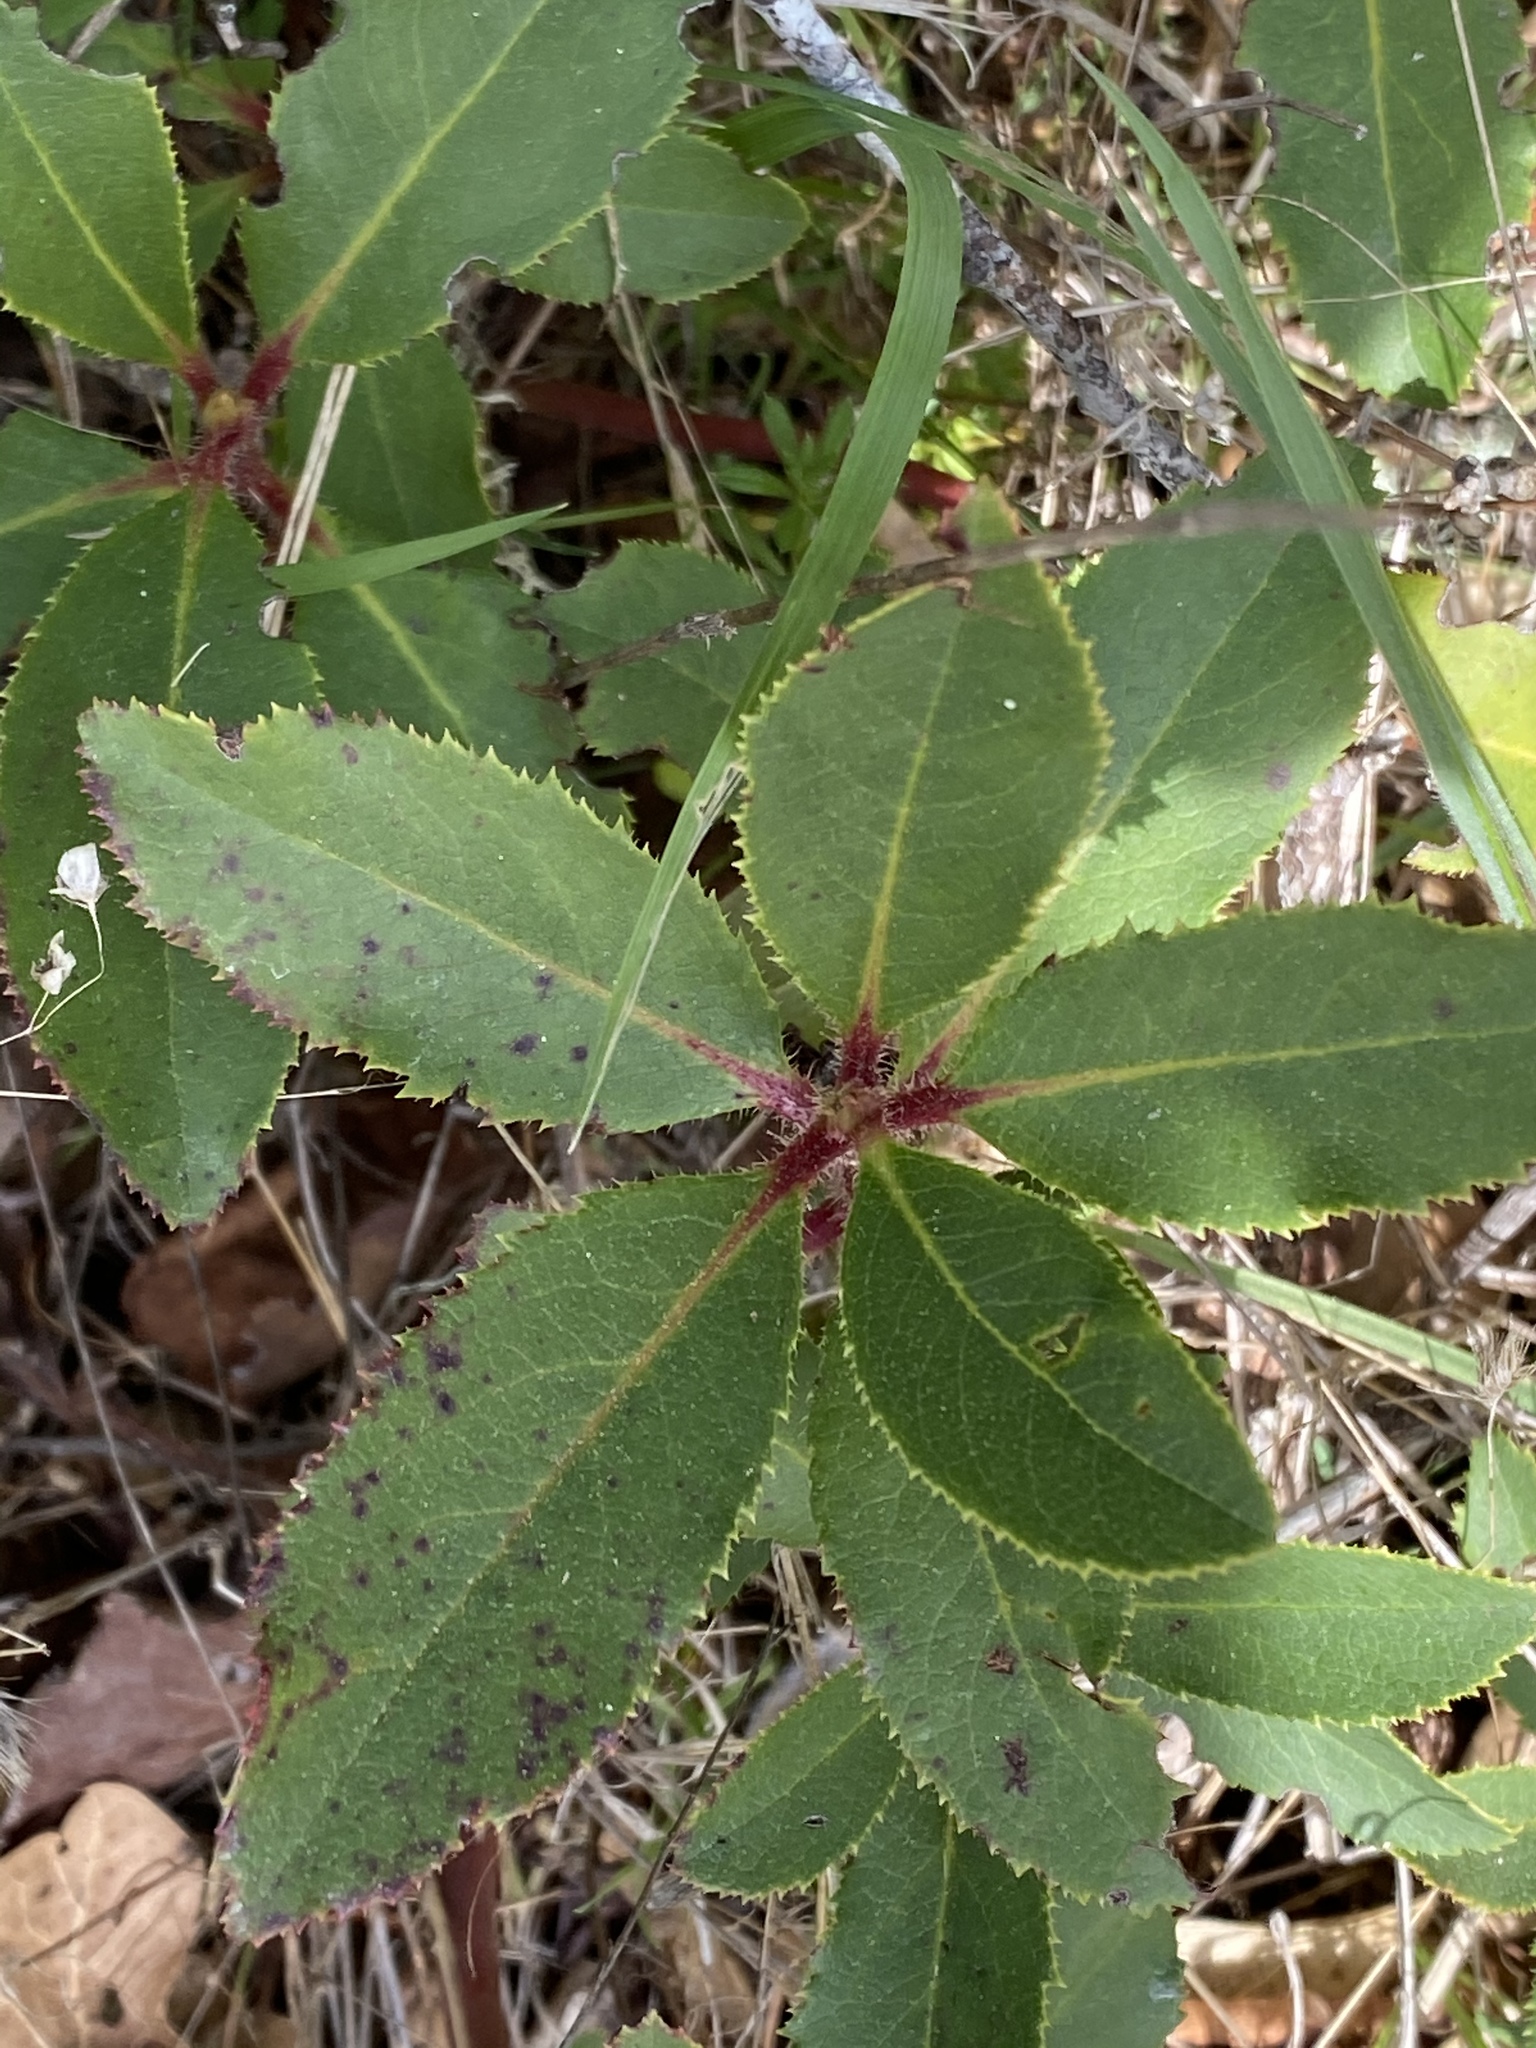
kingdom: Plantae
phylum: Tracheophyta
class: Magnoliopsida
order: Ericales
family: Ericaceae
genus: Arbutus
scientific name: Arbutus menziesii
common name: Pacific madrone
